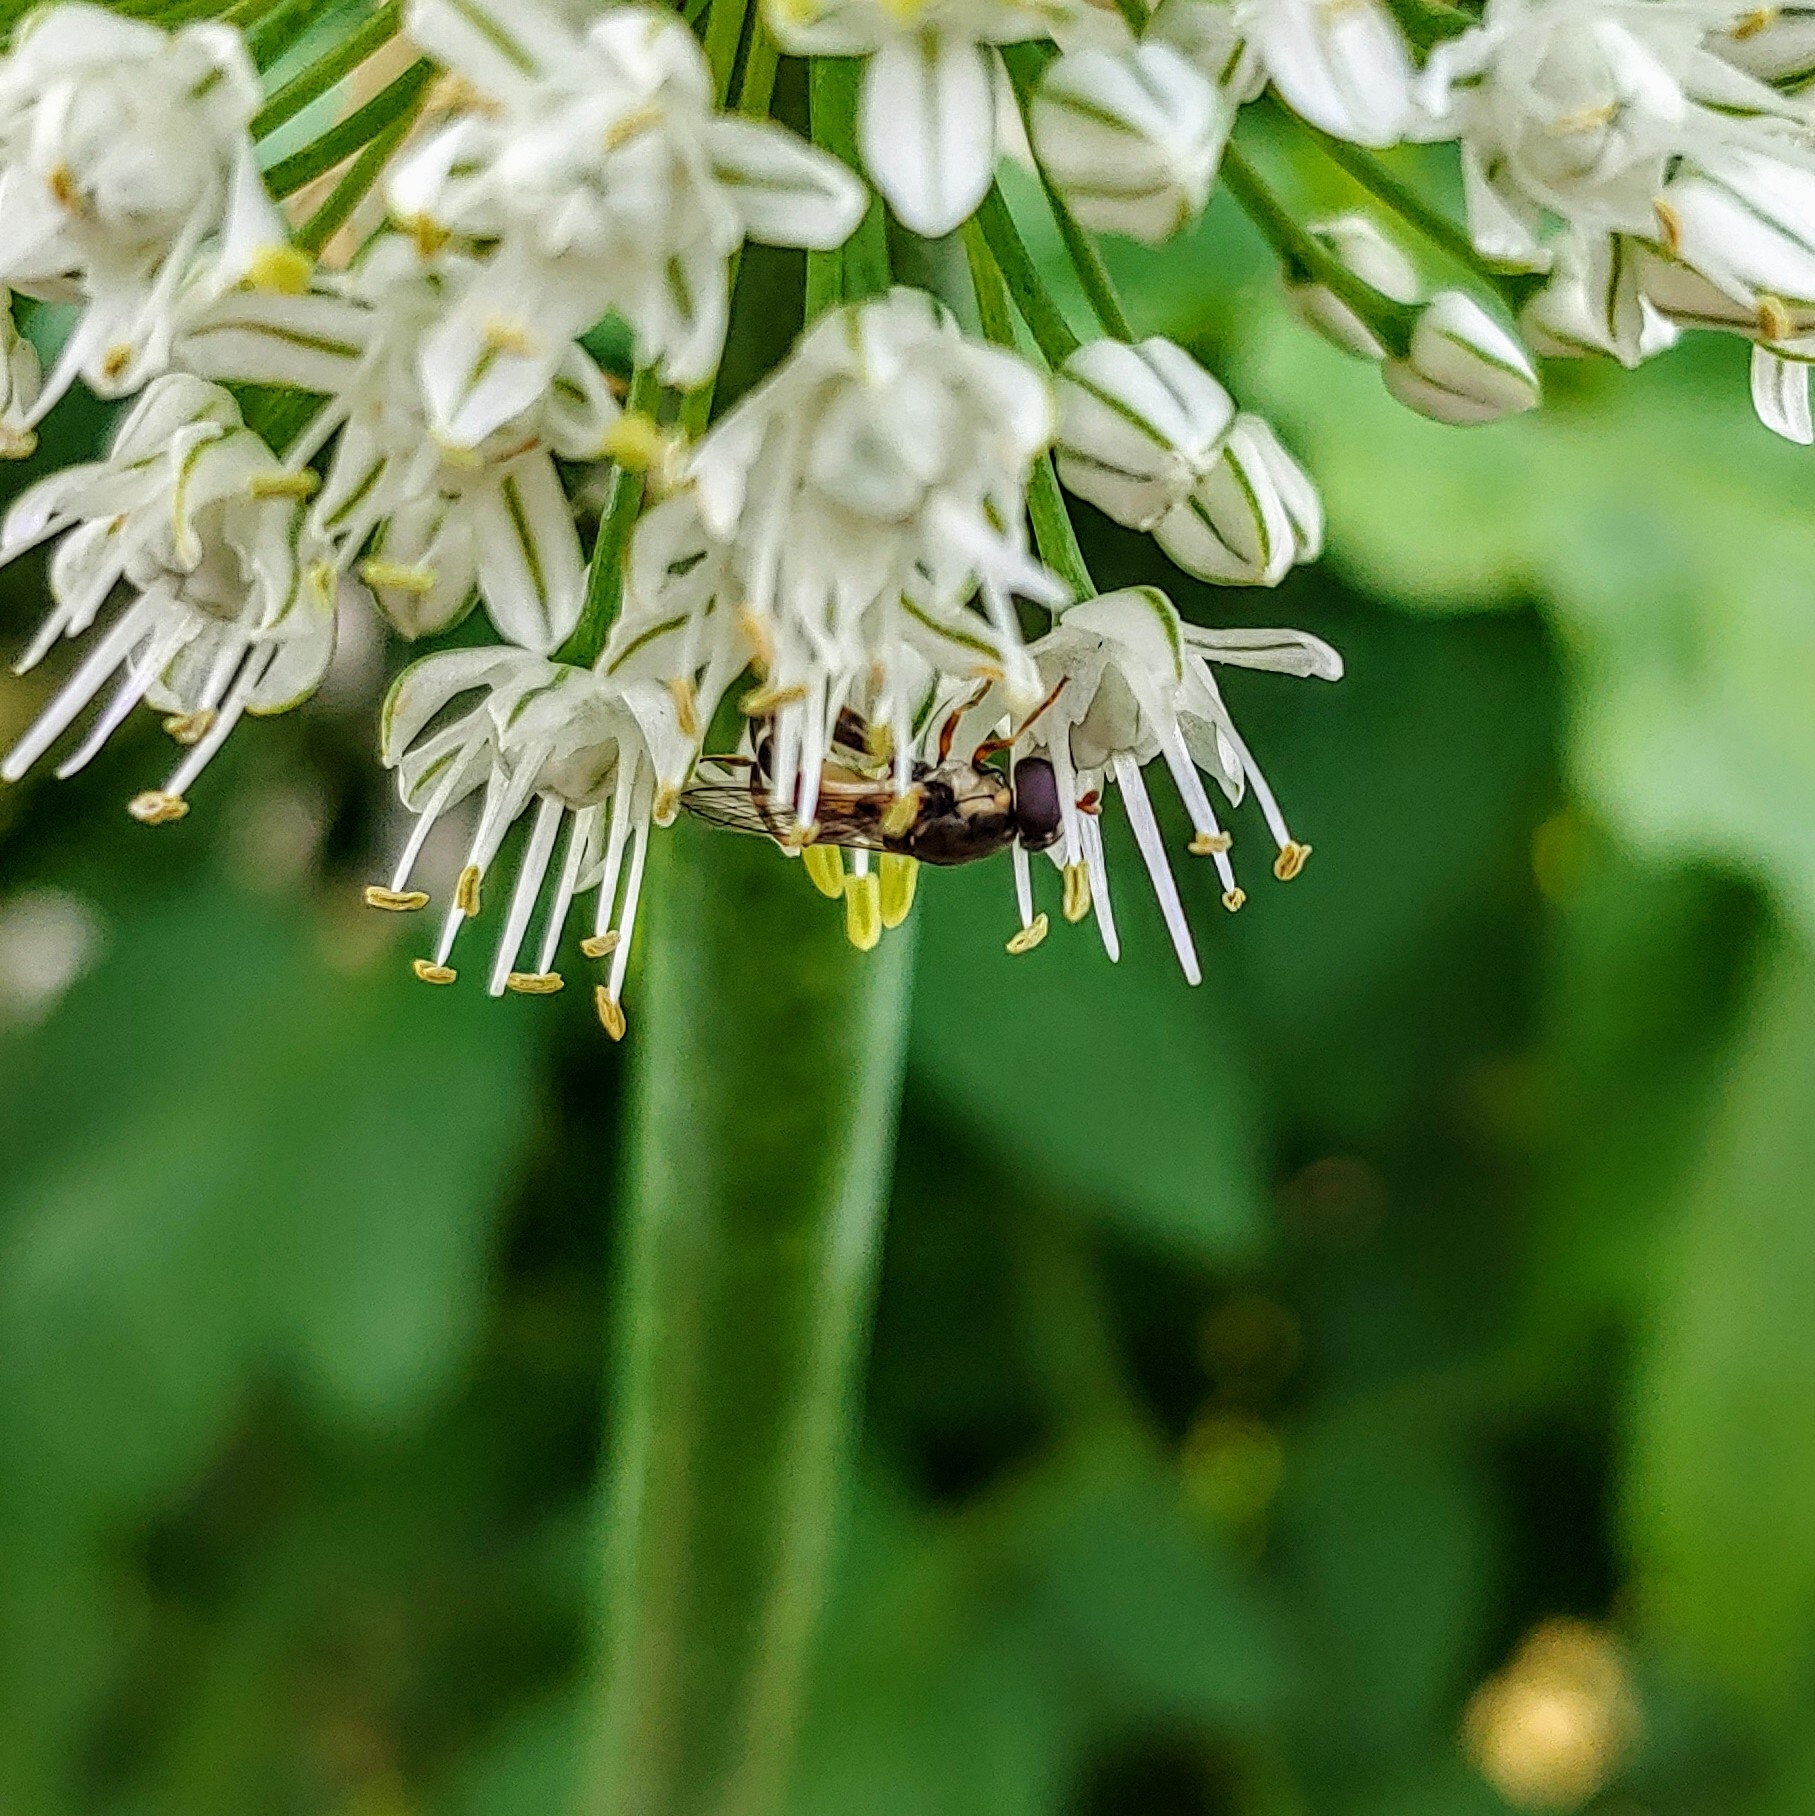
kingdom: Animalia
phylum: Arthropoda
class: Insecta
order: Diptera
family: Syrphidae
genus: Syritta
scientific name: Syritta pipiens
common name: Hover fly
